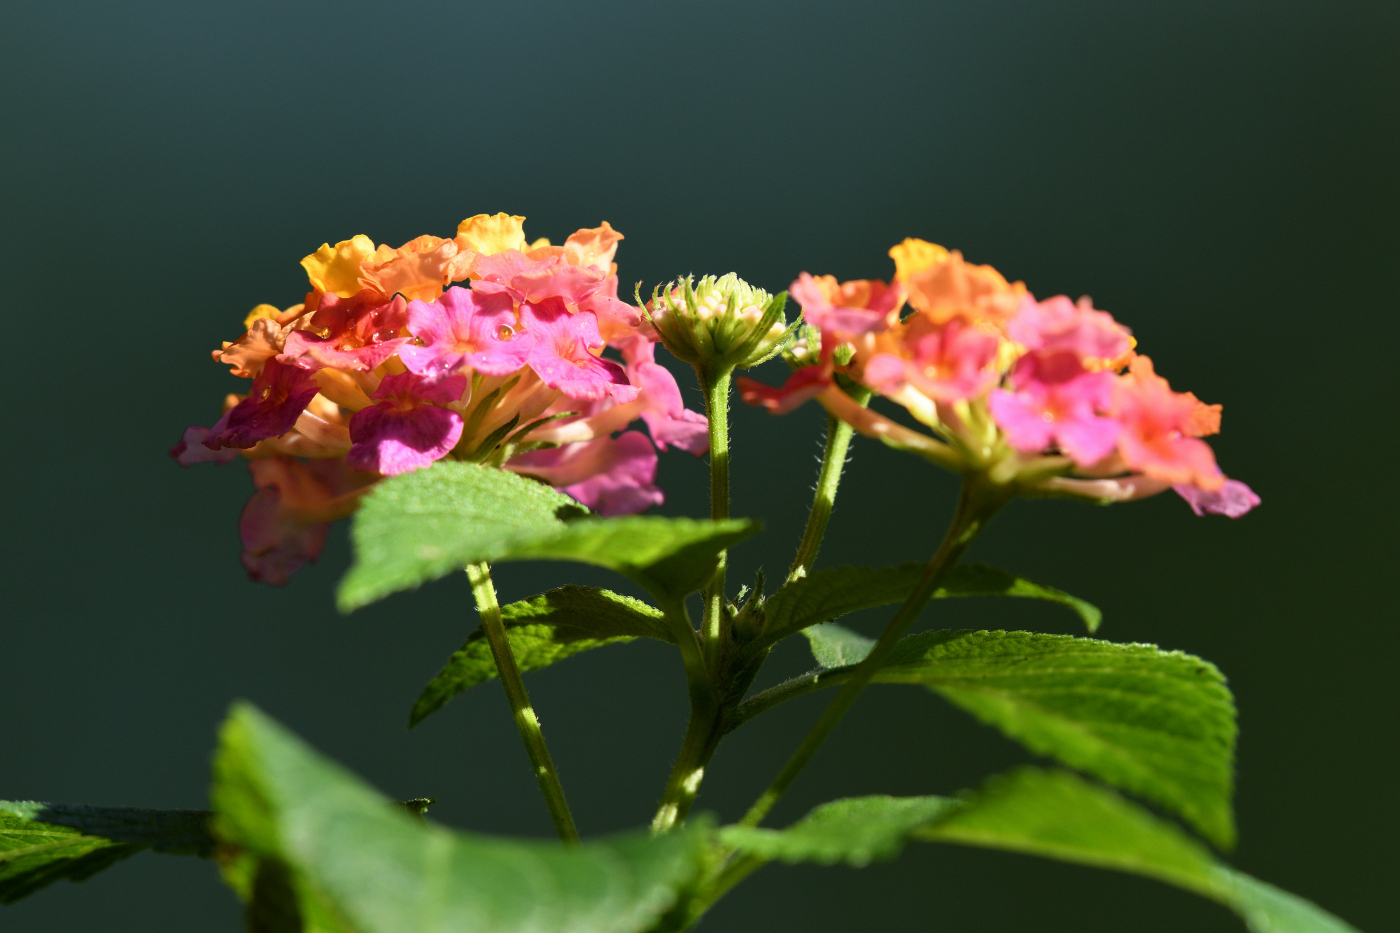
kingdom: Plantae
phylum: Tracheophyta
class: Magnoliopsida
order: Lamiales
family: Verbenaceae
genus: Lantana
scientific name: Lantana camara
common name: Lantana
